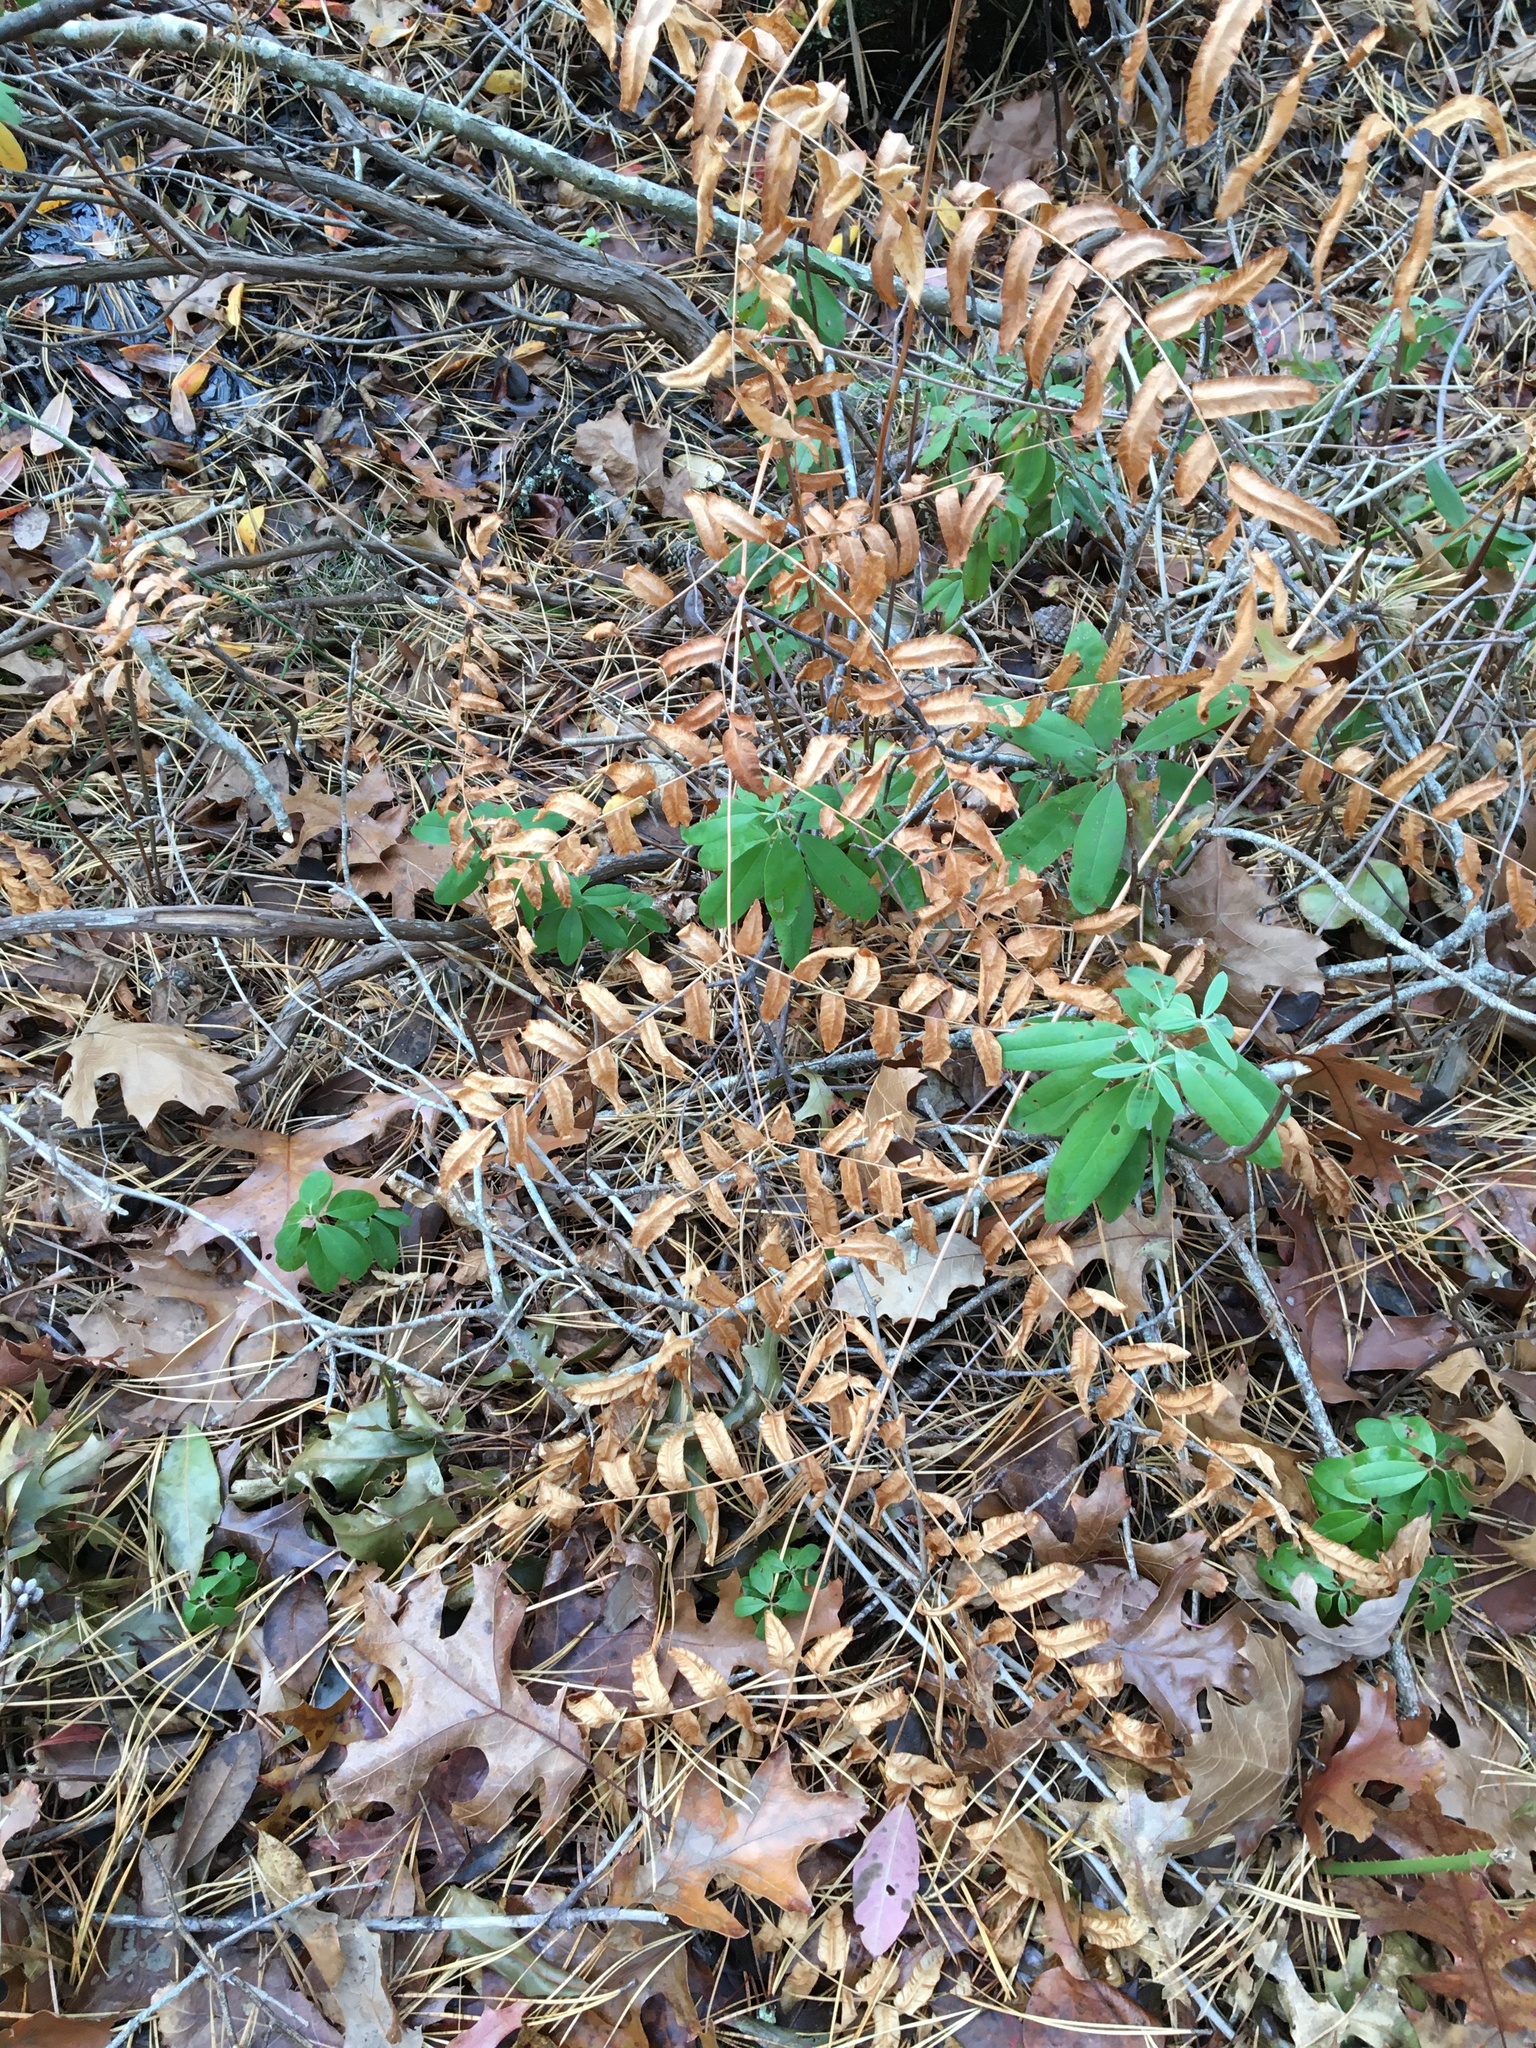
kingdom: Plantae
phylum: Tracheophyta
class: Polypodiopsida
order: Osmundales
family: Osmundaceae
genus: Osmunda
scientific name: Osmunda spectabilis
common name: American royal fern
